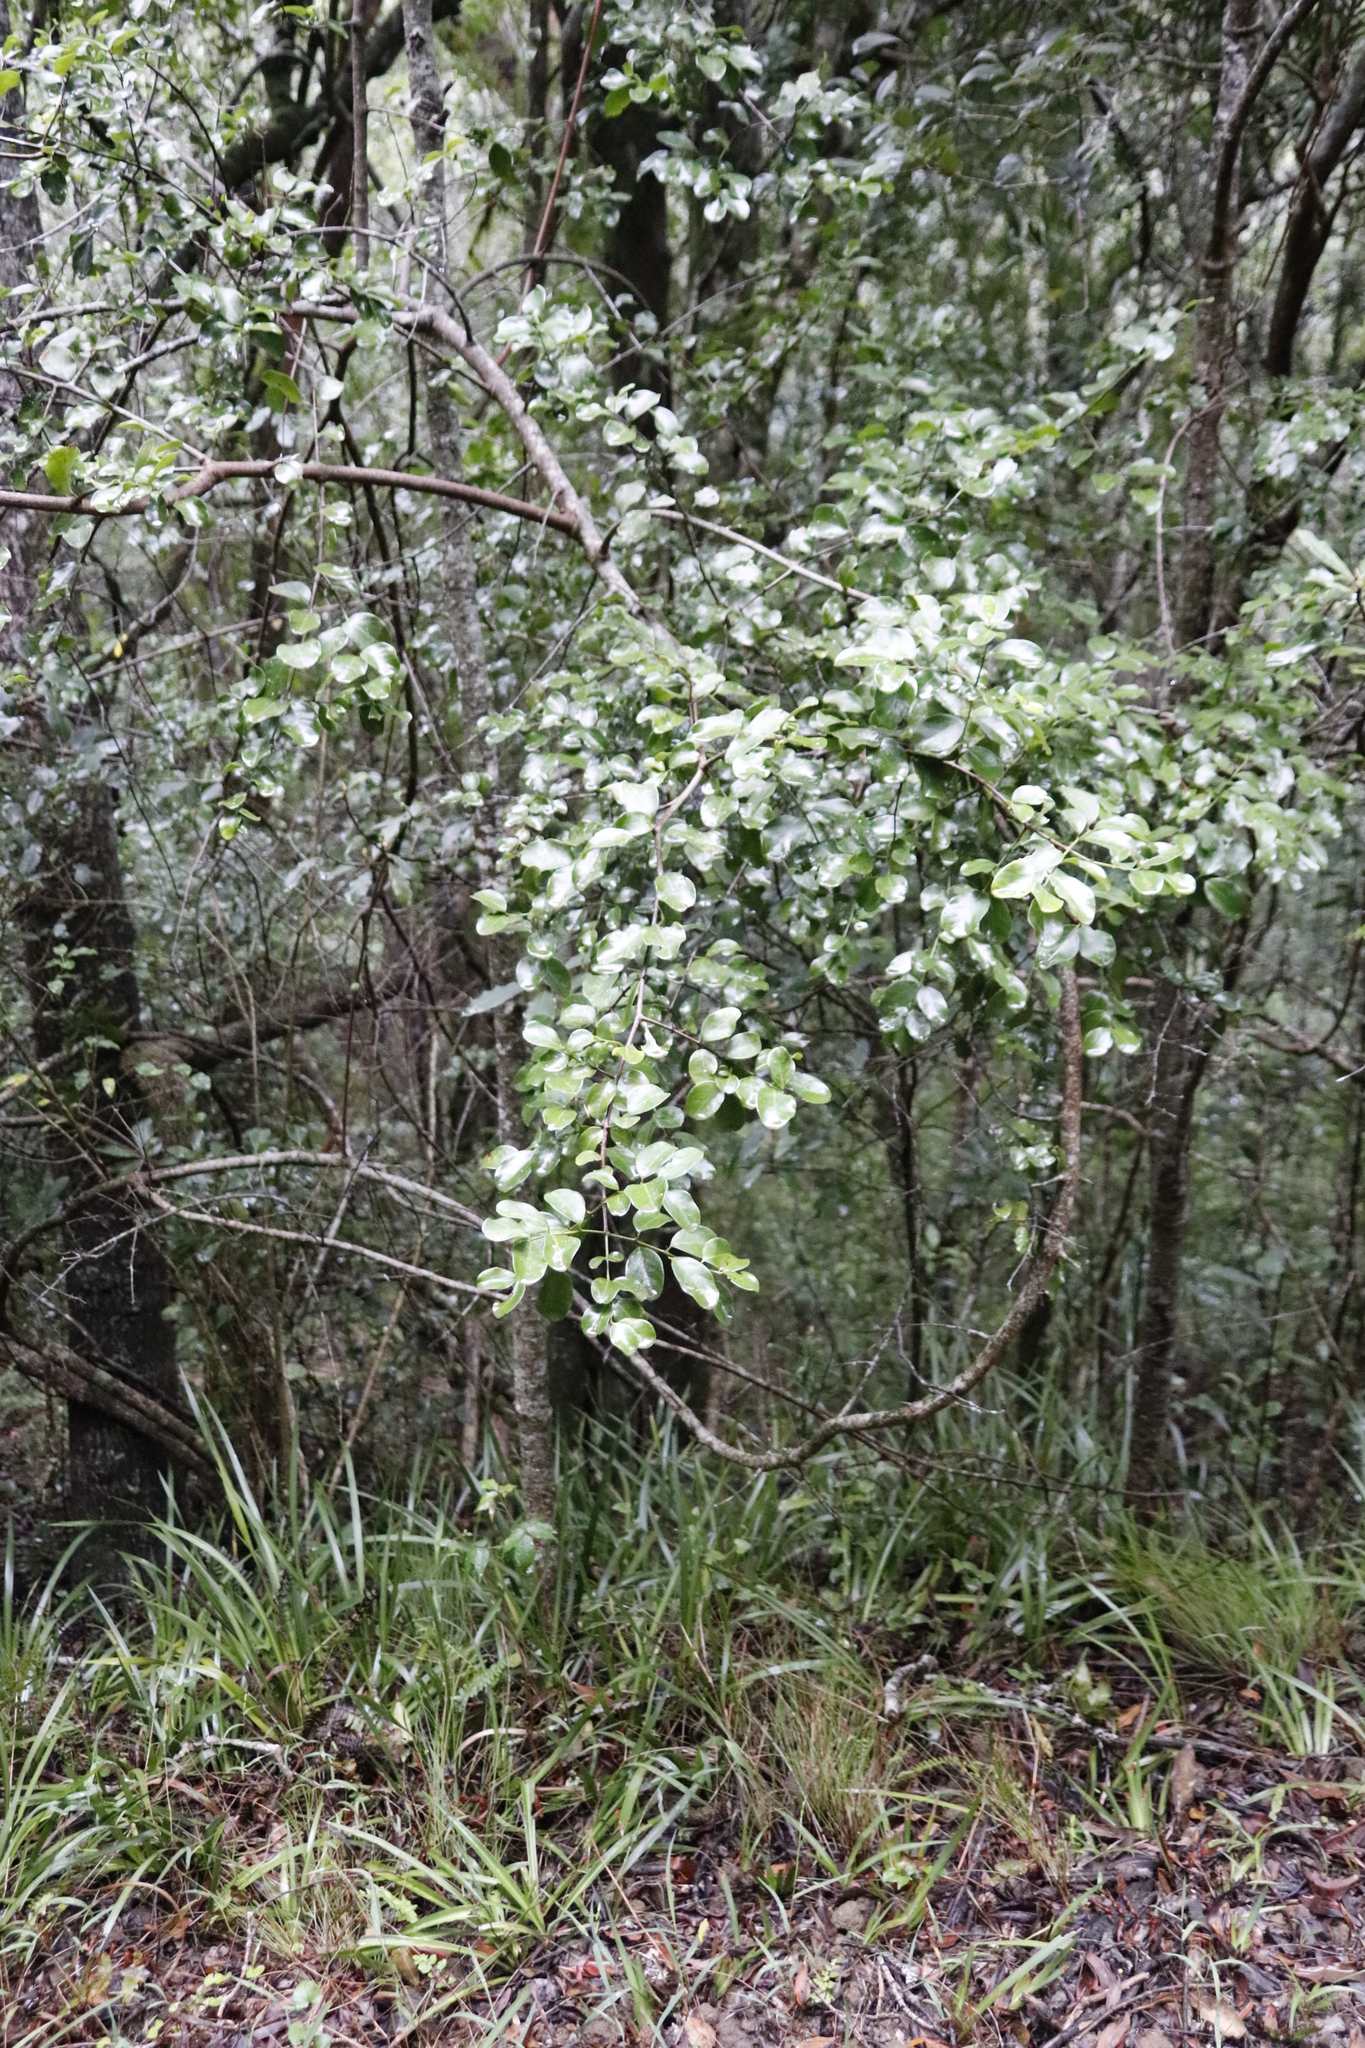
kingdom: Plantae
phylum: Tracheophyta
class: Magnoliopsida
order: Rosales
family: Rhamnaceae
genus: Scutia
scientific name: Scutia myrtina
